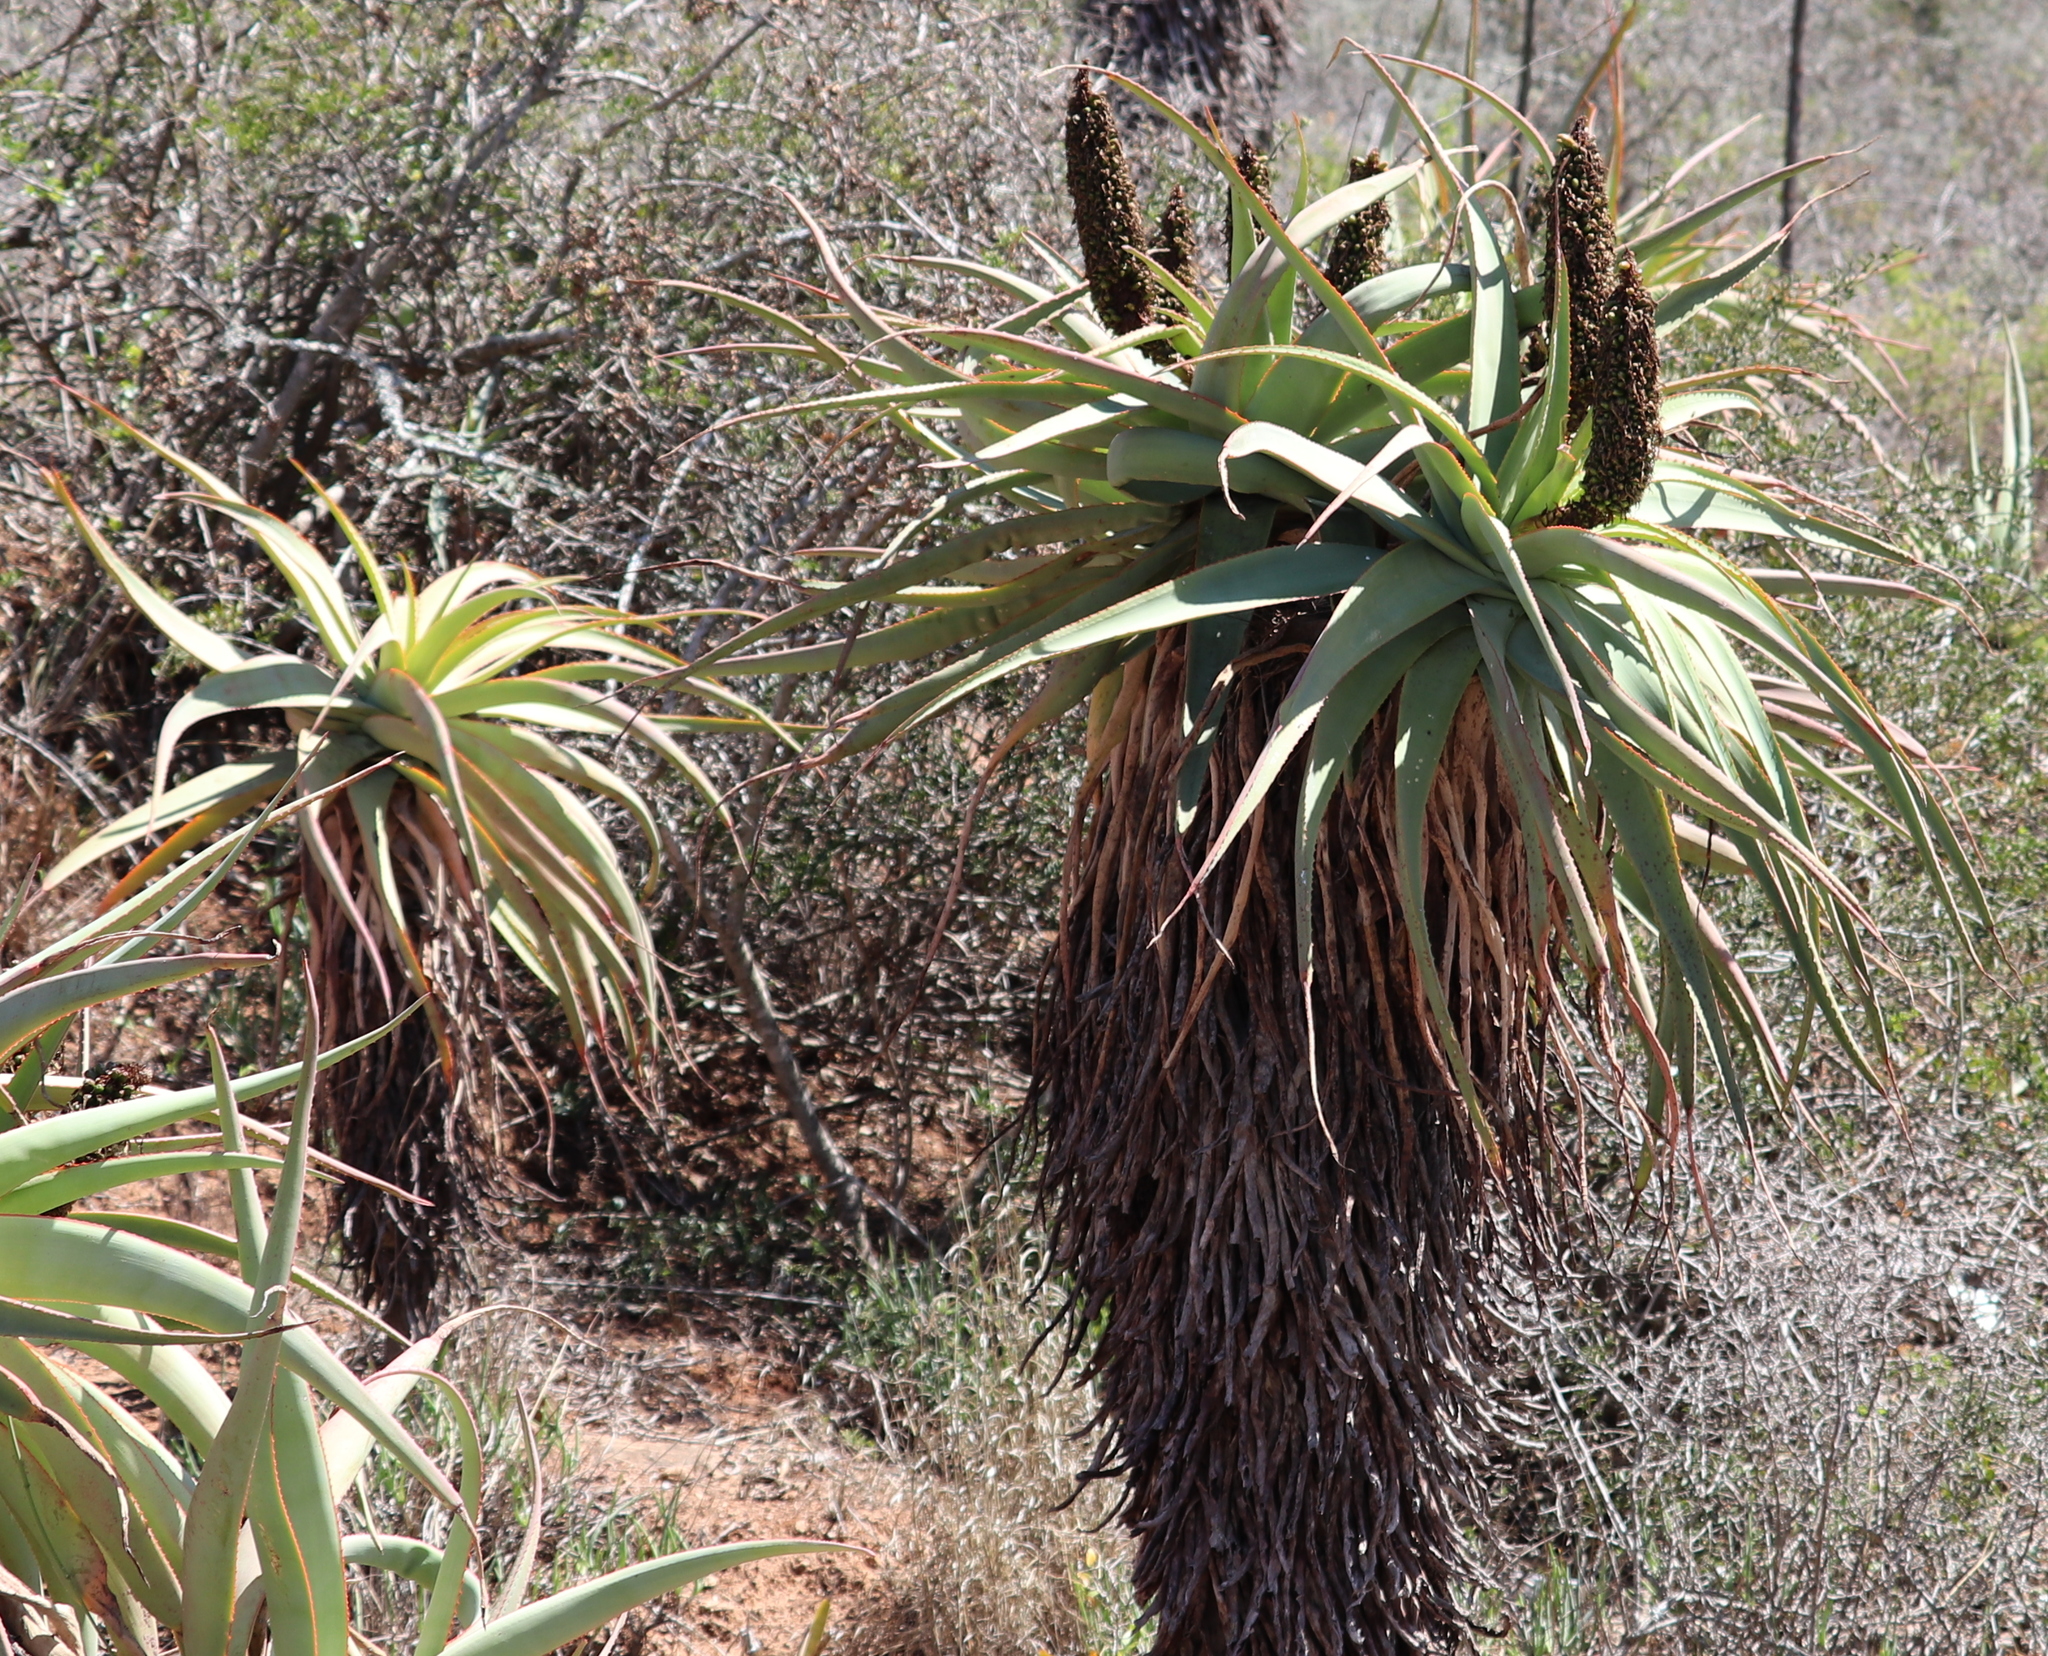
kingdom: Plantae
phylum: Tracheophyta
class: Liliopsida
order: Asparagales
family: Asphodelaceae
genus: Aloe
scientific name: Aloe speciosa
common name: Beautiful aloe
